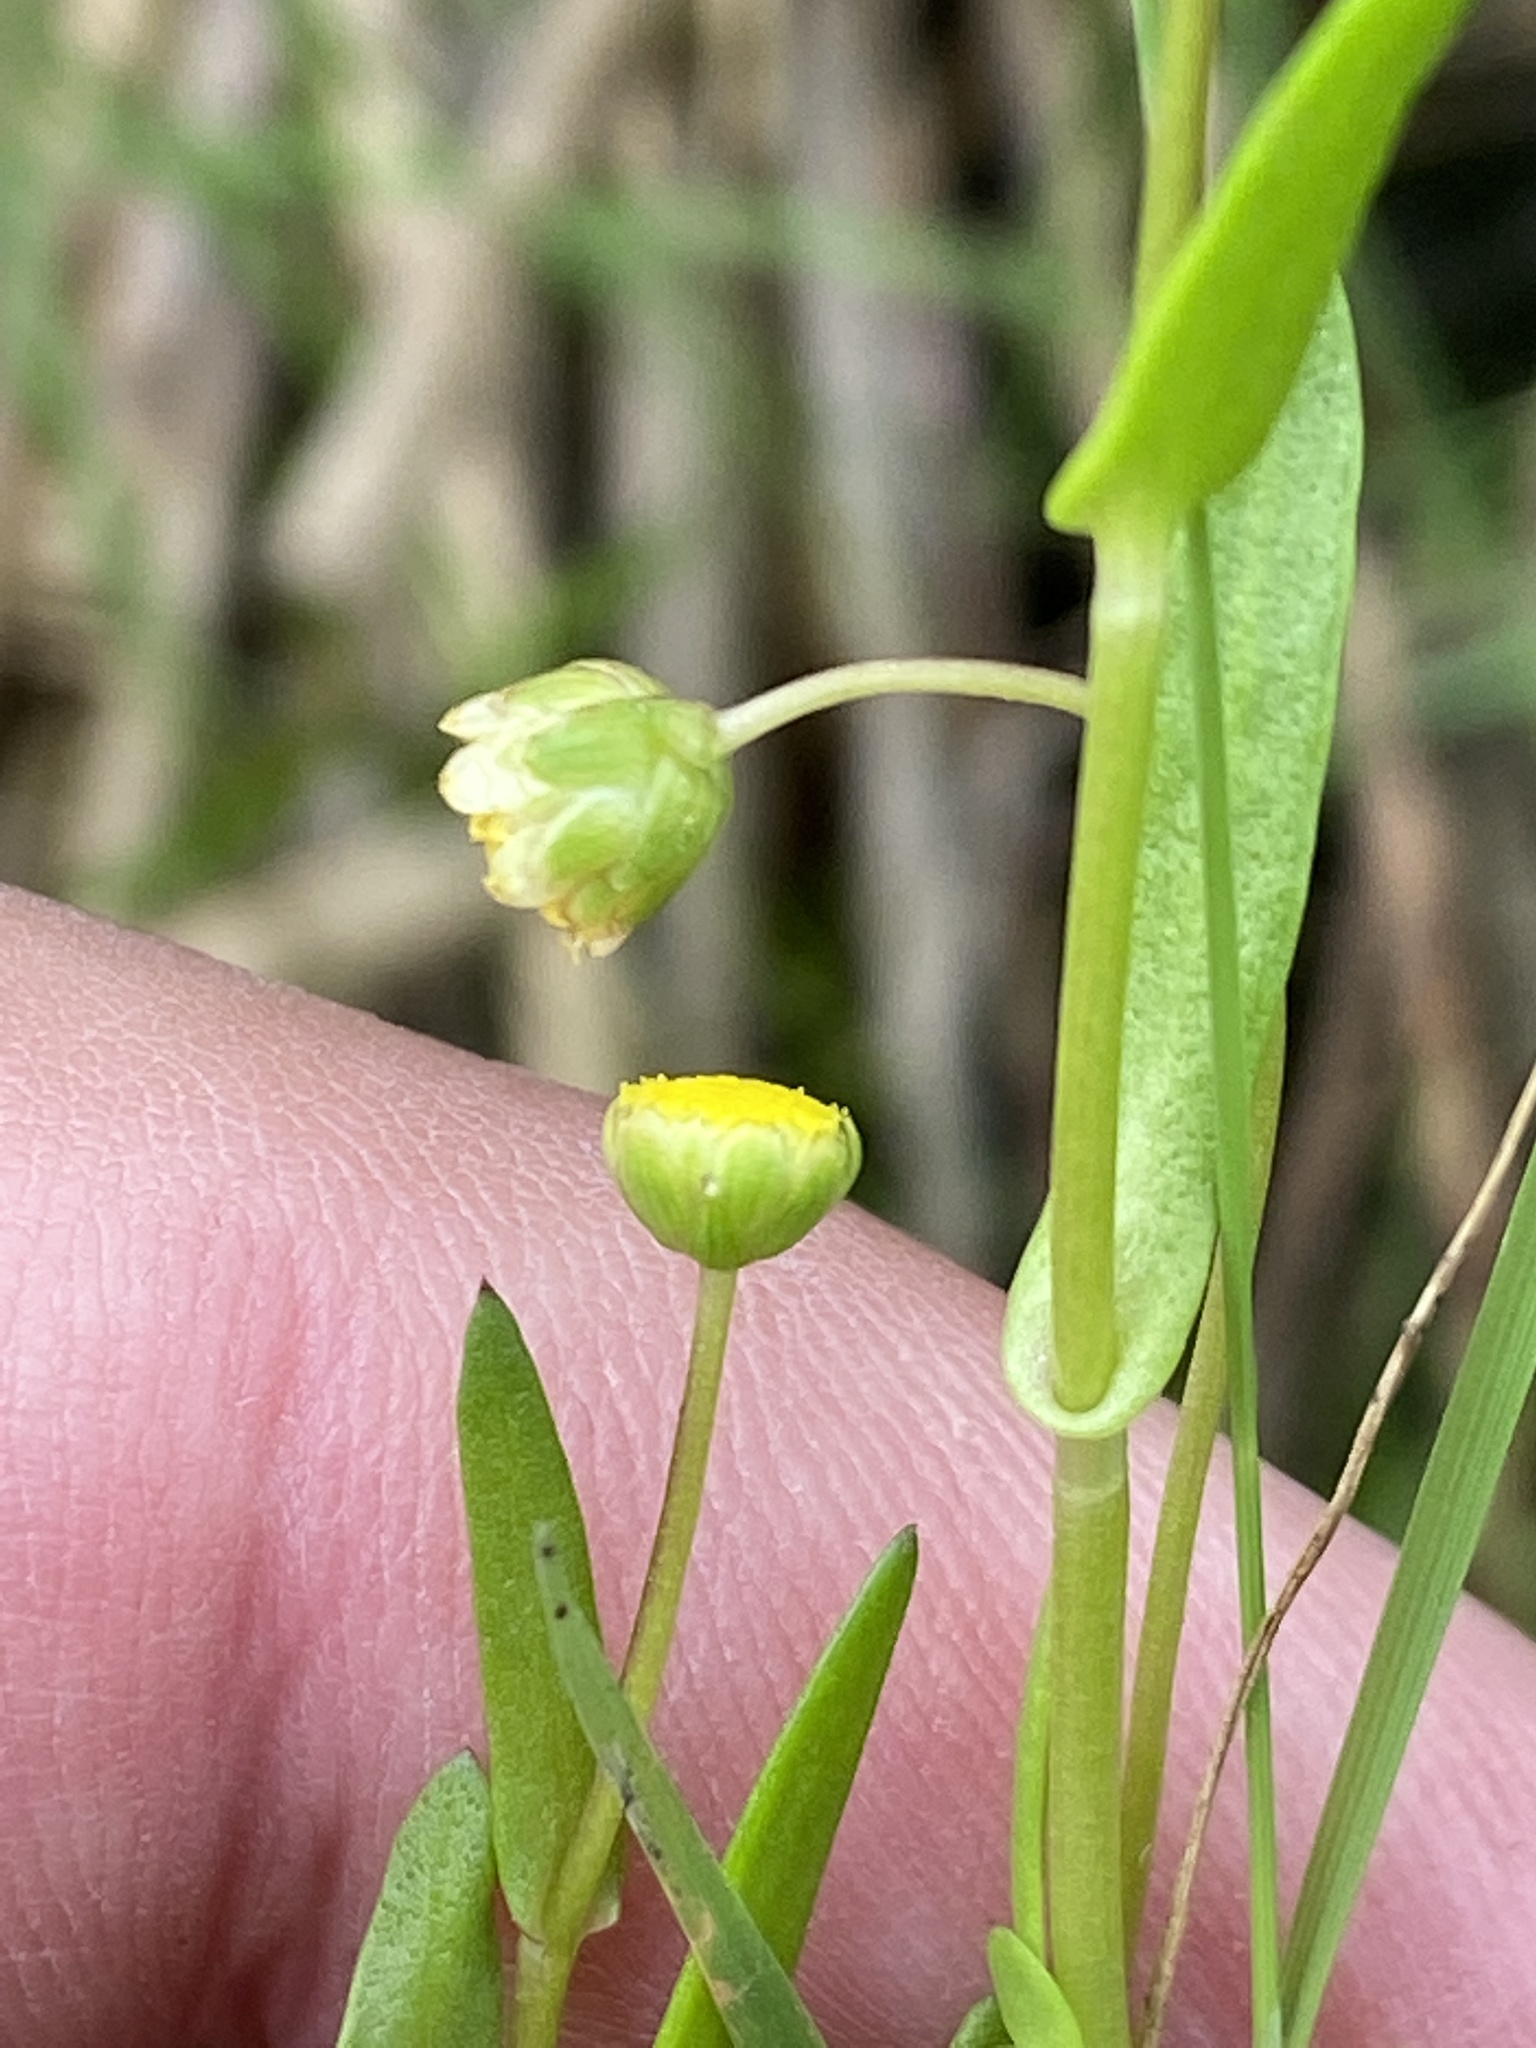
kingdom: Plantae
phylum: Tracheophyta
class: Magnoliopsida
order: Asterales
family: Asteraceae
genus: Cotula
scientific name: Cotula coronopifolia
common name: Buttonweed
